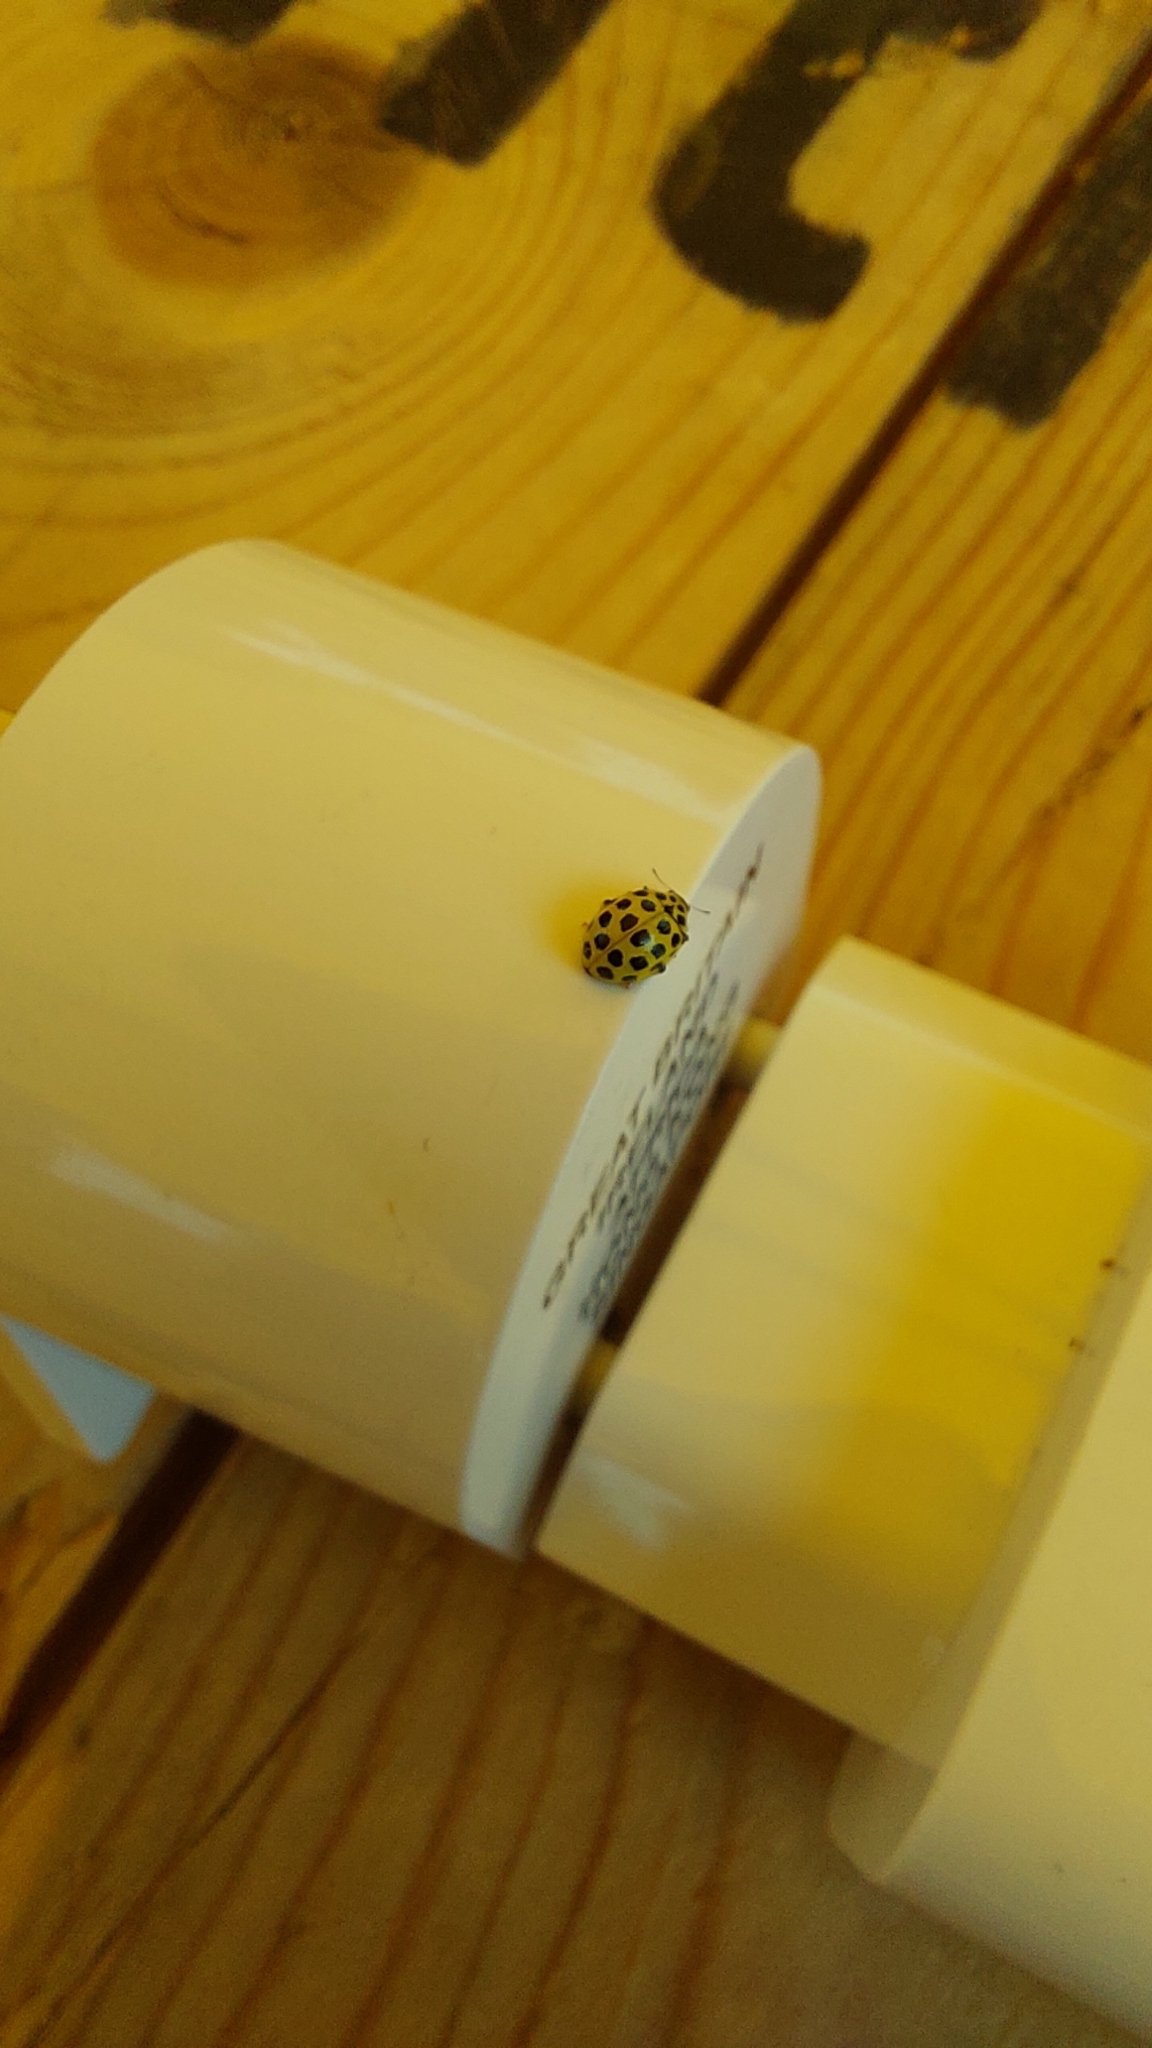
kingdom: Animalia
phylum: Arthropoda
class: Insecta
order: Coleoptera
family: Coccinellidae
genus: Psyllobora
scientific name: Psyllobora vigintiduopunctata
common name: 22-spot ladybird
